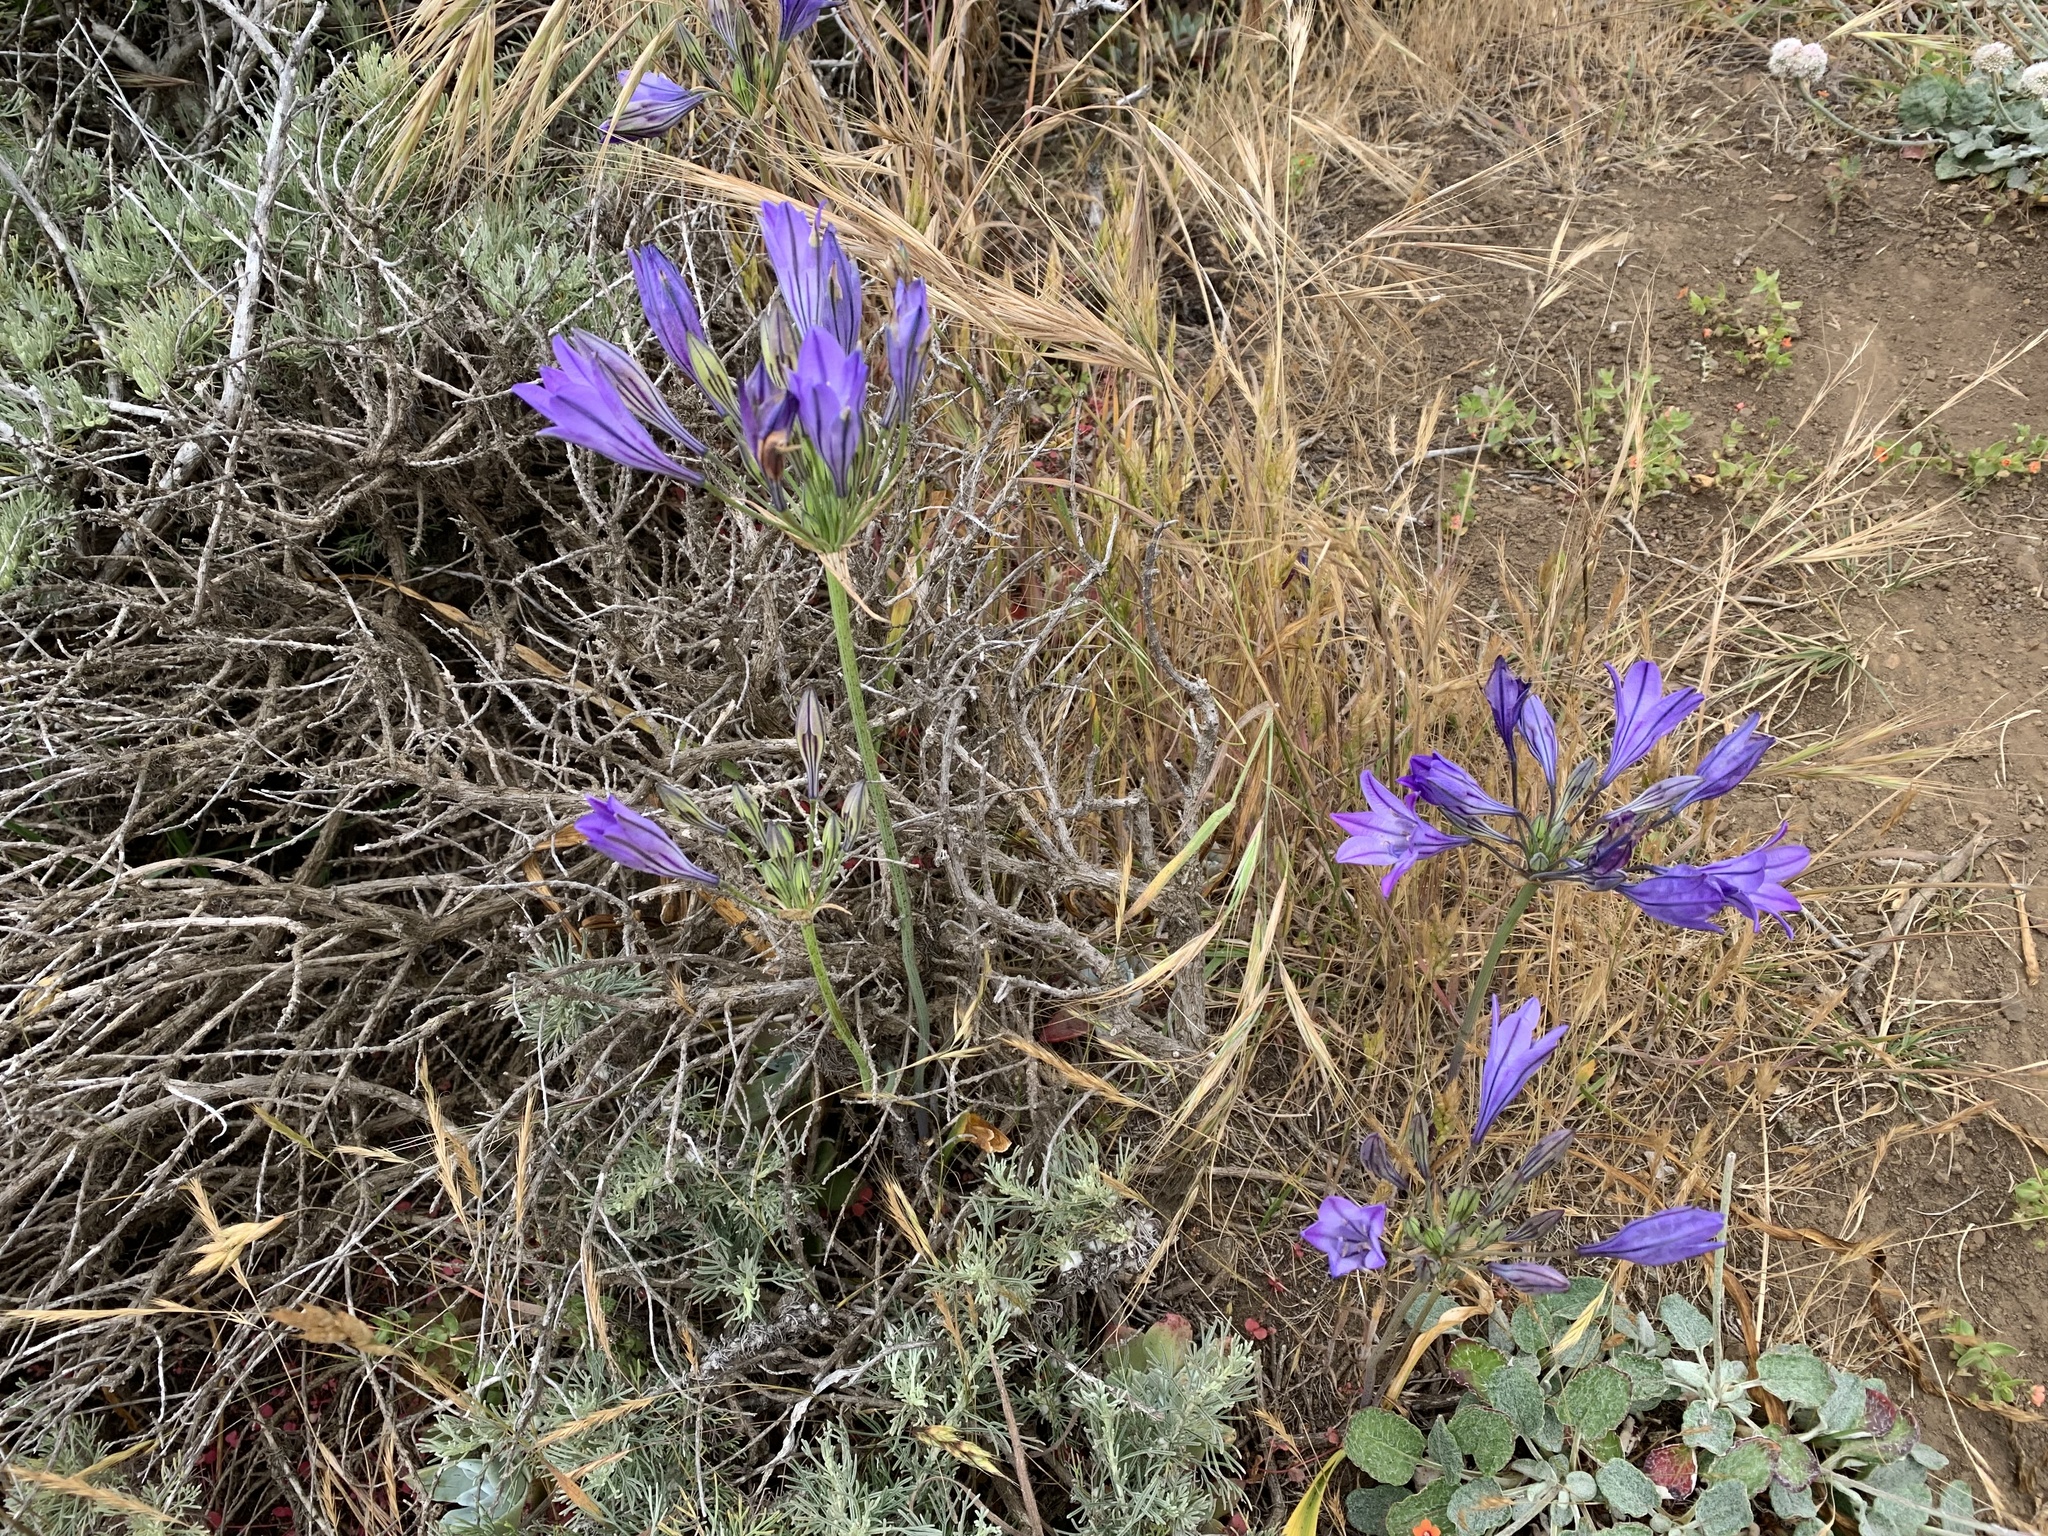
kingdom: Plantae
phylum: Tracheophyta
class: Liliopsida
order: Asparagales
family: Asparagaceae
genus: Triteleia
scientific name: Triteleia laxa
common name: Triplet-lily
